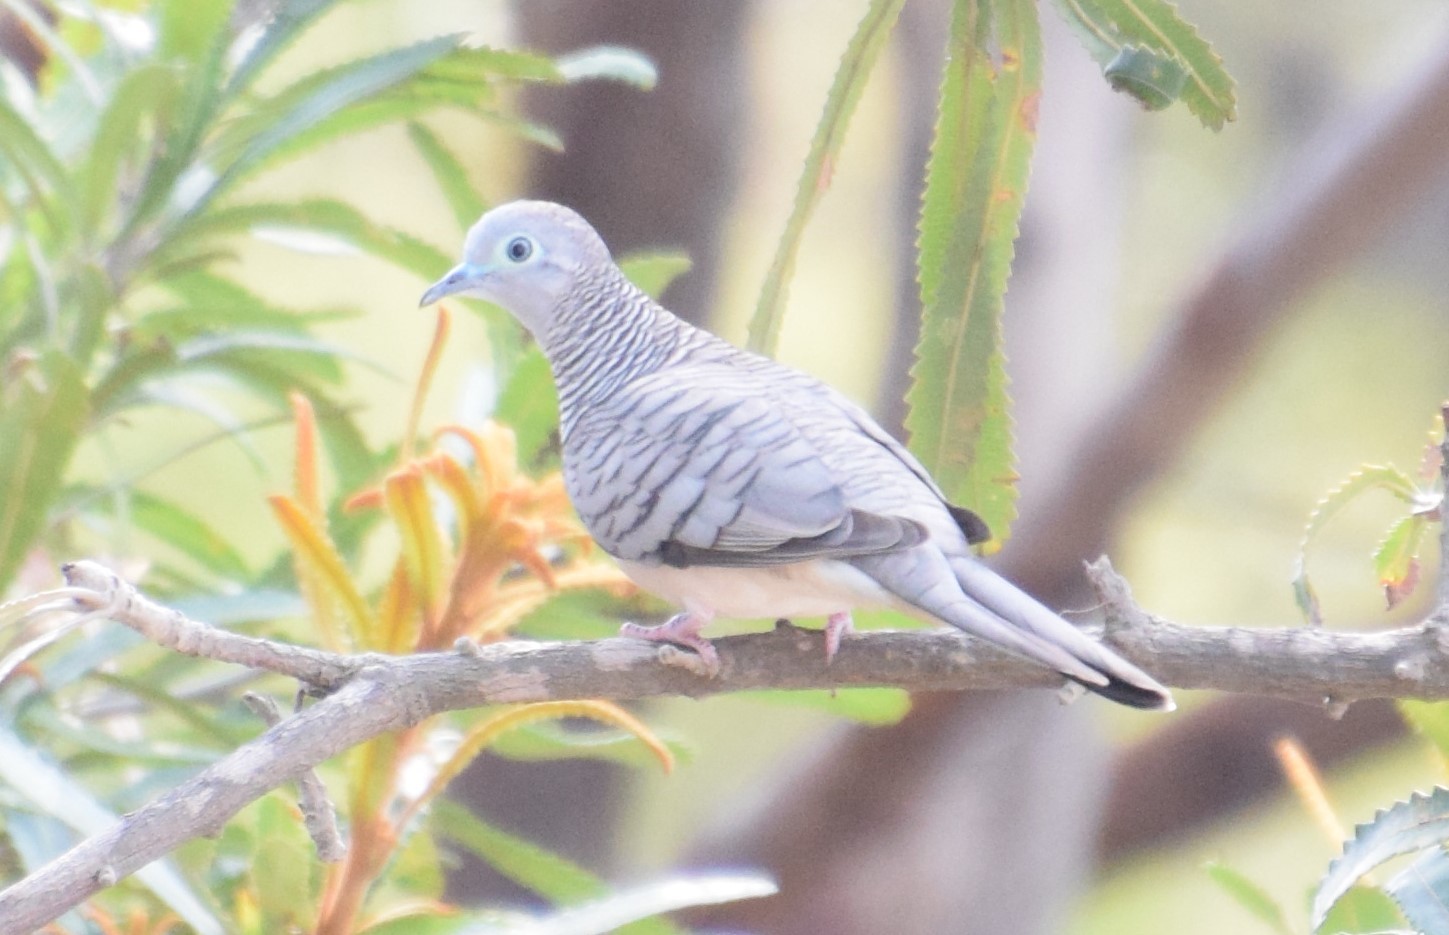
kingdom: Animalia
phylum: Chordata
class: Aves
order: Columbiformes
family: Columbidae
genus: Geopelia
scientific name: Geopelia placida
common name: Peaceful dove
